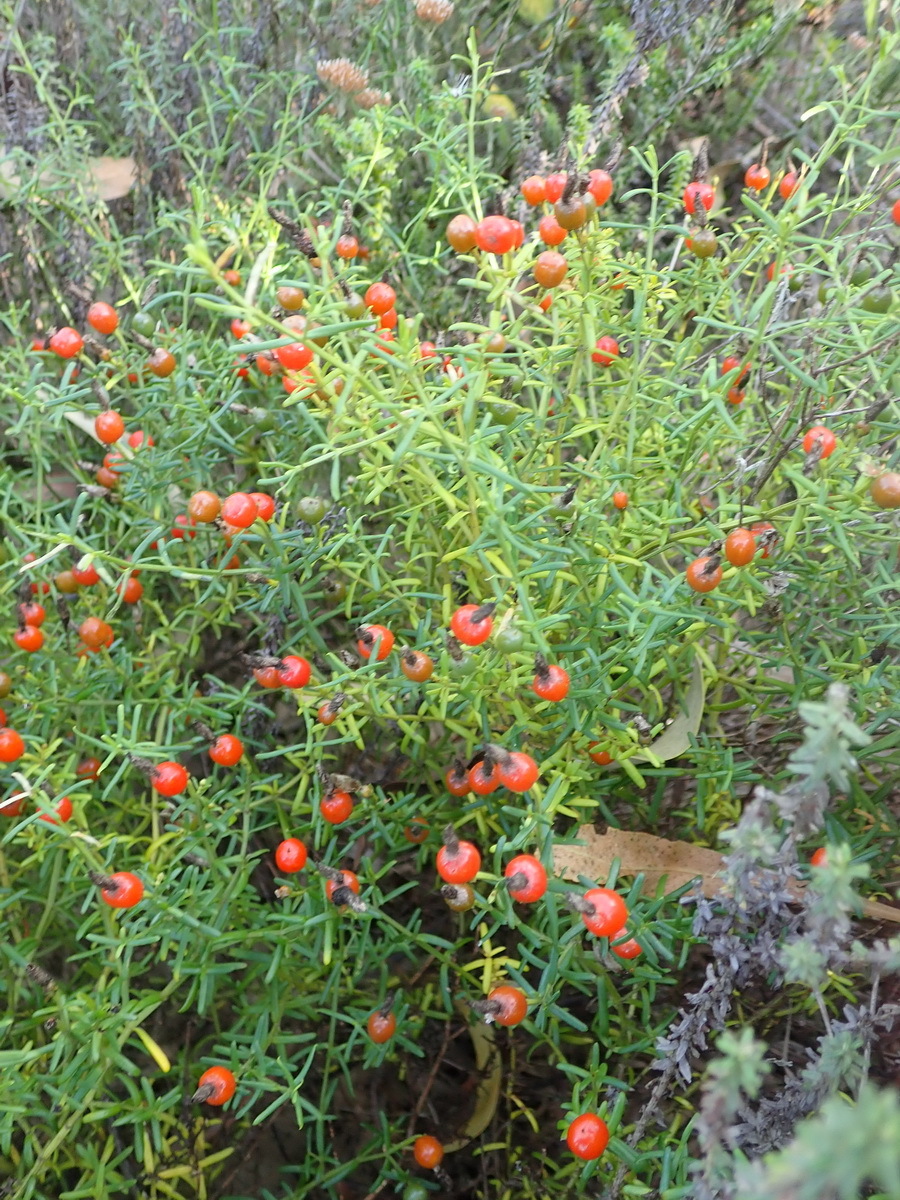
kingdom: Plantae
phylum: Tracheophyta
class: Magnoliopsida
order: Gentianales
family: Gentianaceae
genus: Chironia
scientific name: Chironia baccifera
